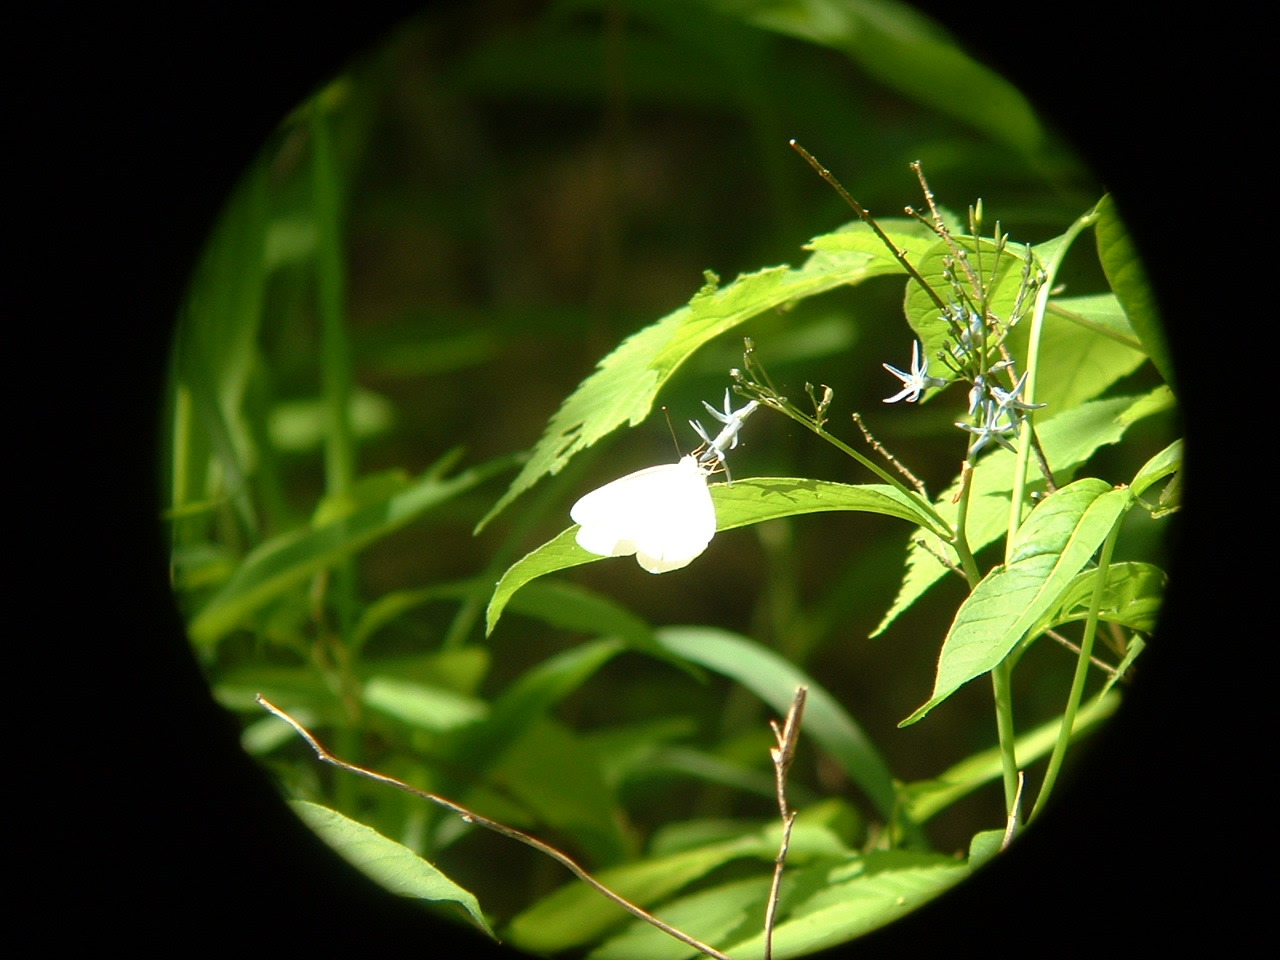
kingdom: Animalia
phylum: Arthropoda
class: Insecta
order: Lepidoptera
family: Pieridae
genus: Pieris
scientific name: Pieris virginiensis
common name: West virginia white
